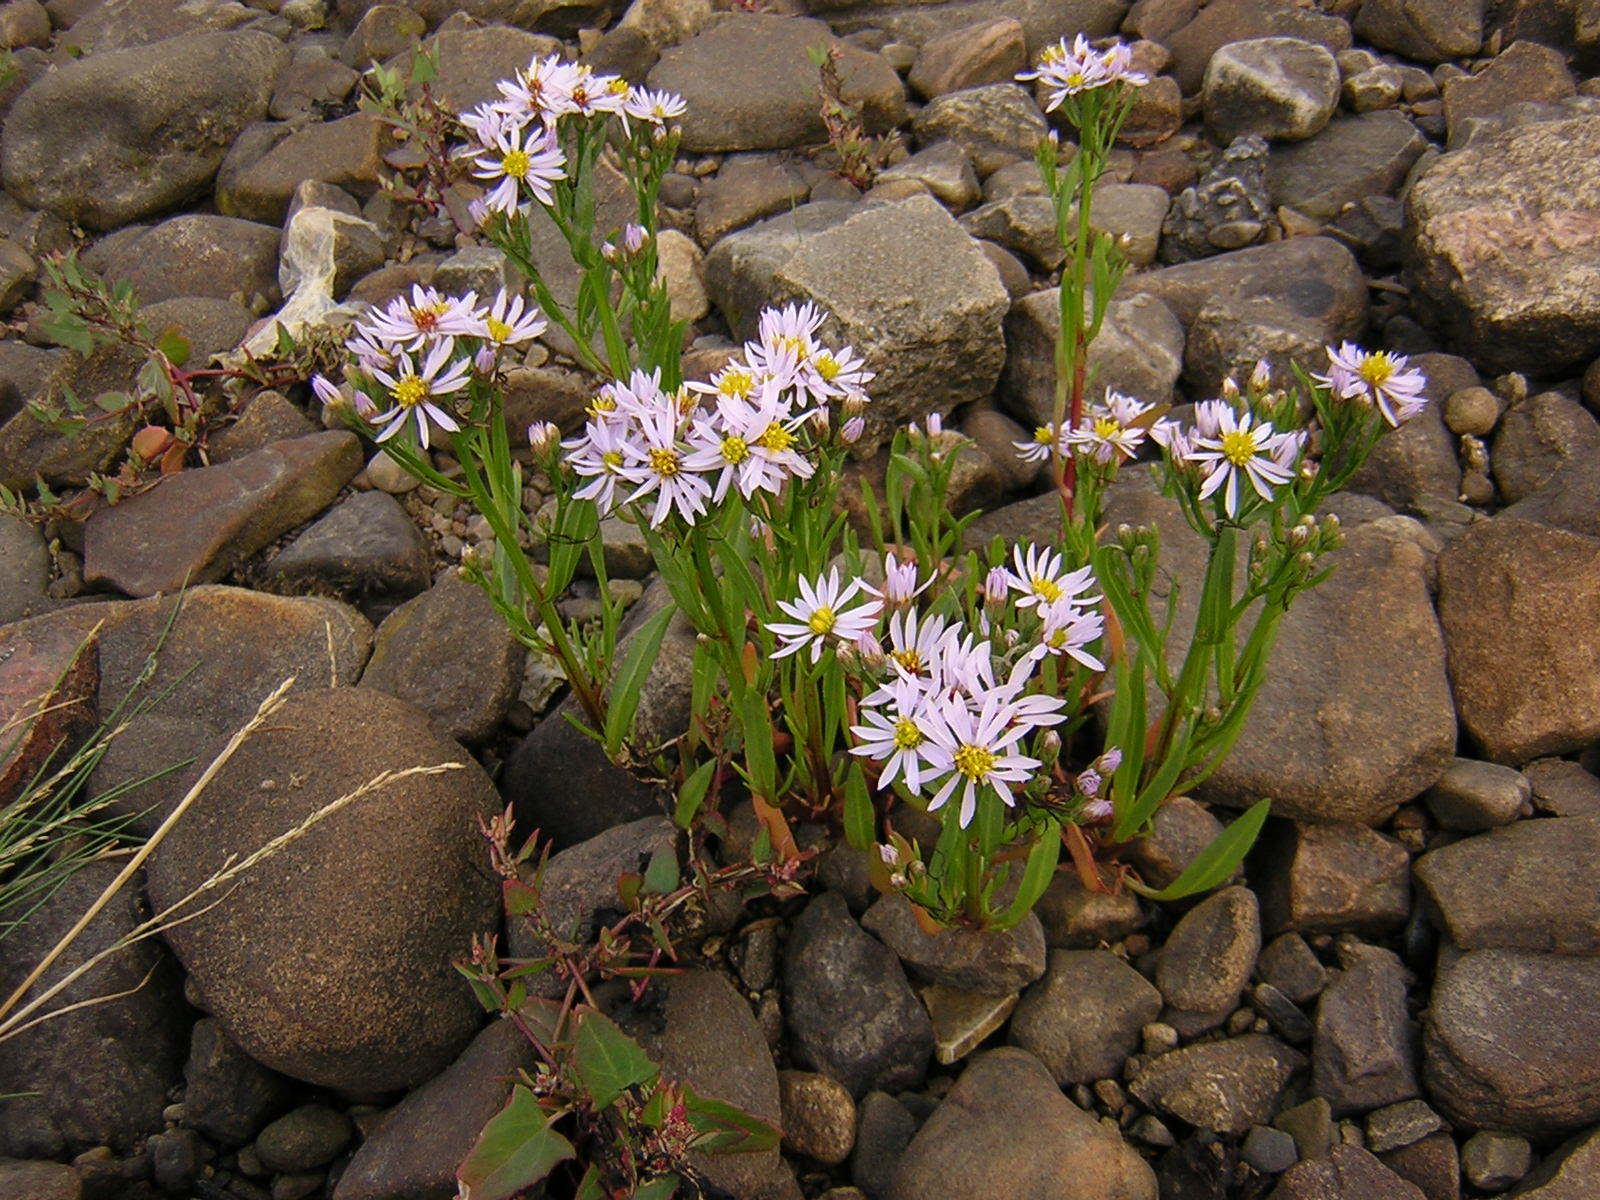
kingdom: Plantae
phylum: Tracheophyta
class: Magnoliopsida
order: Asterales
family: Asteraceae
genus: Tripolium
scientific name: Tripolium pannonicum
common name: Sea aster
